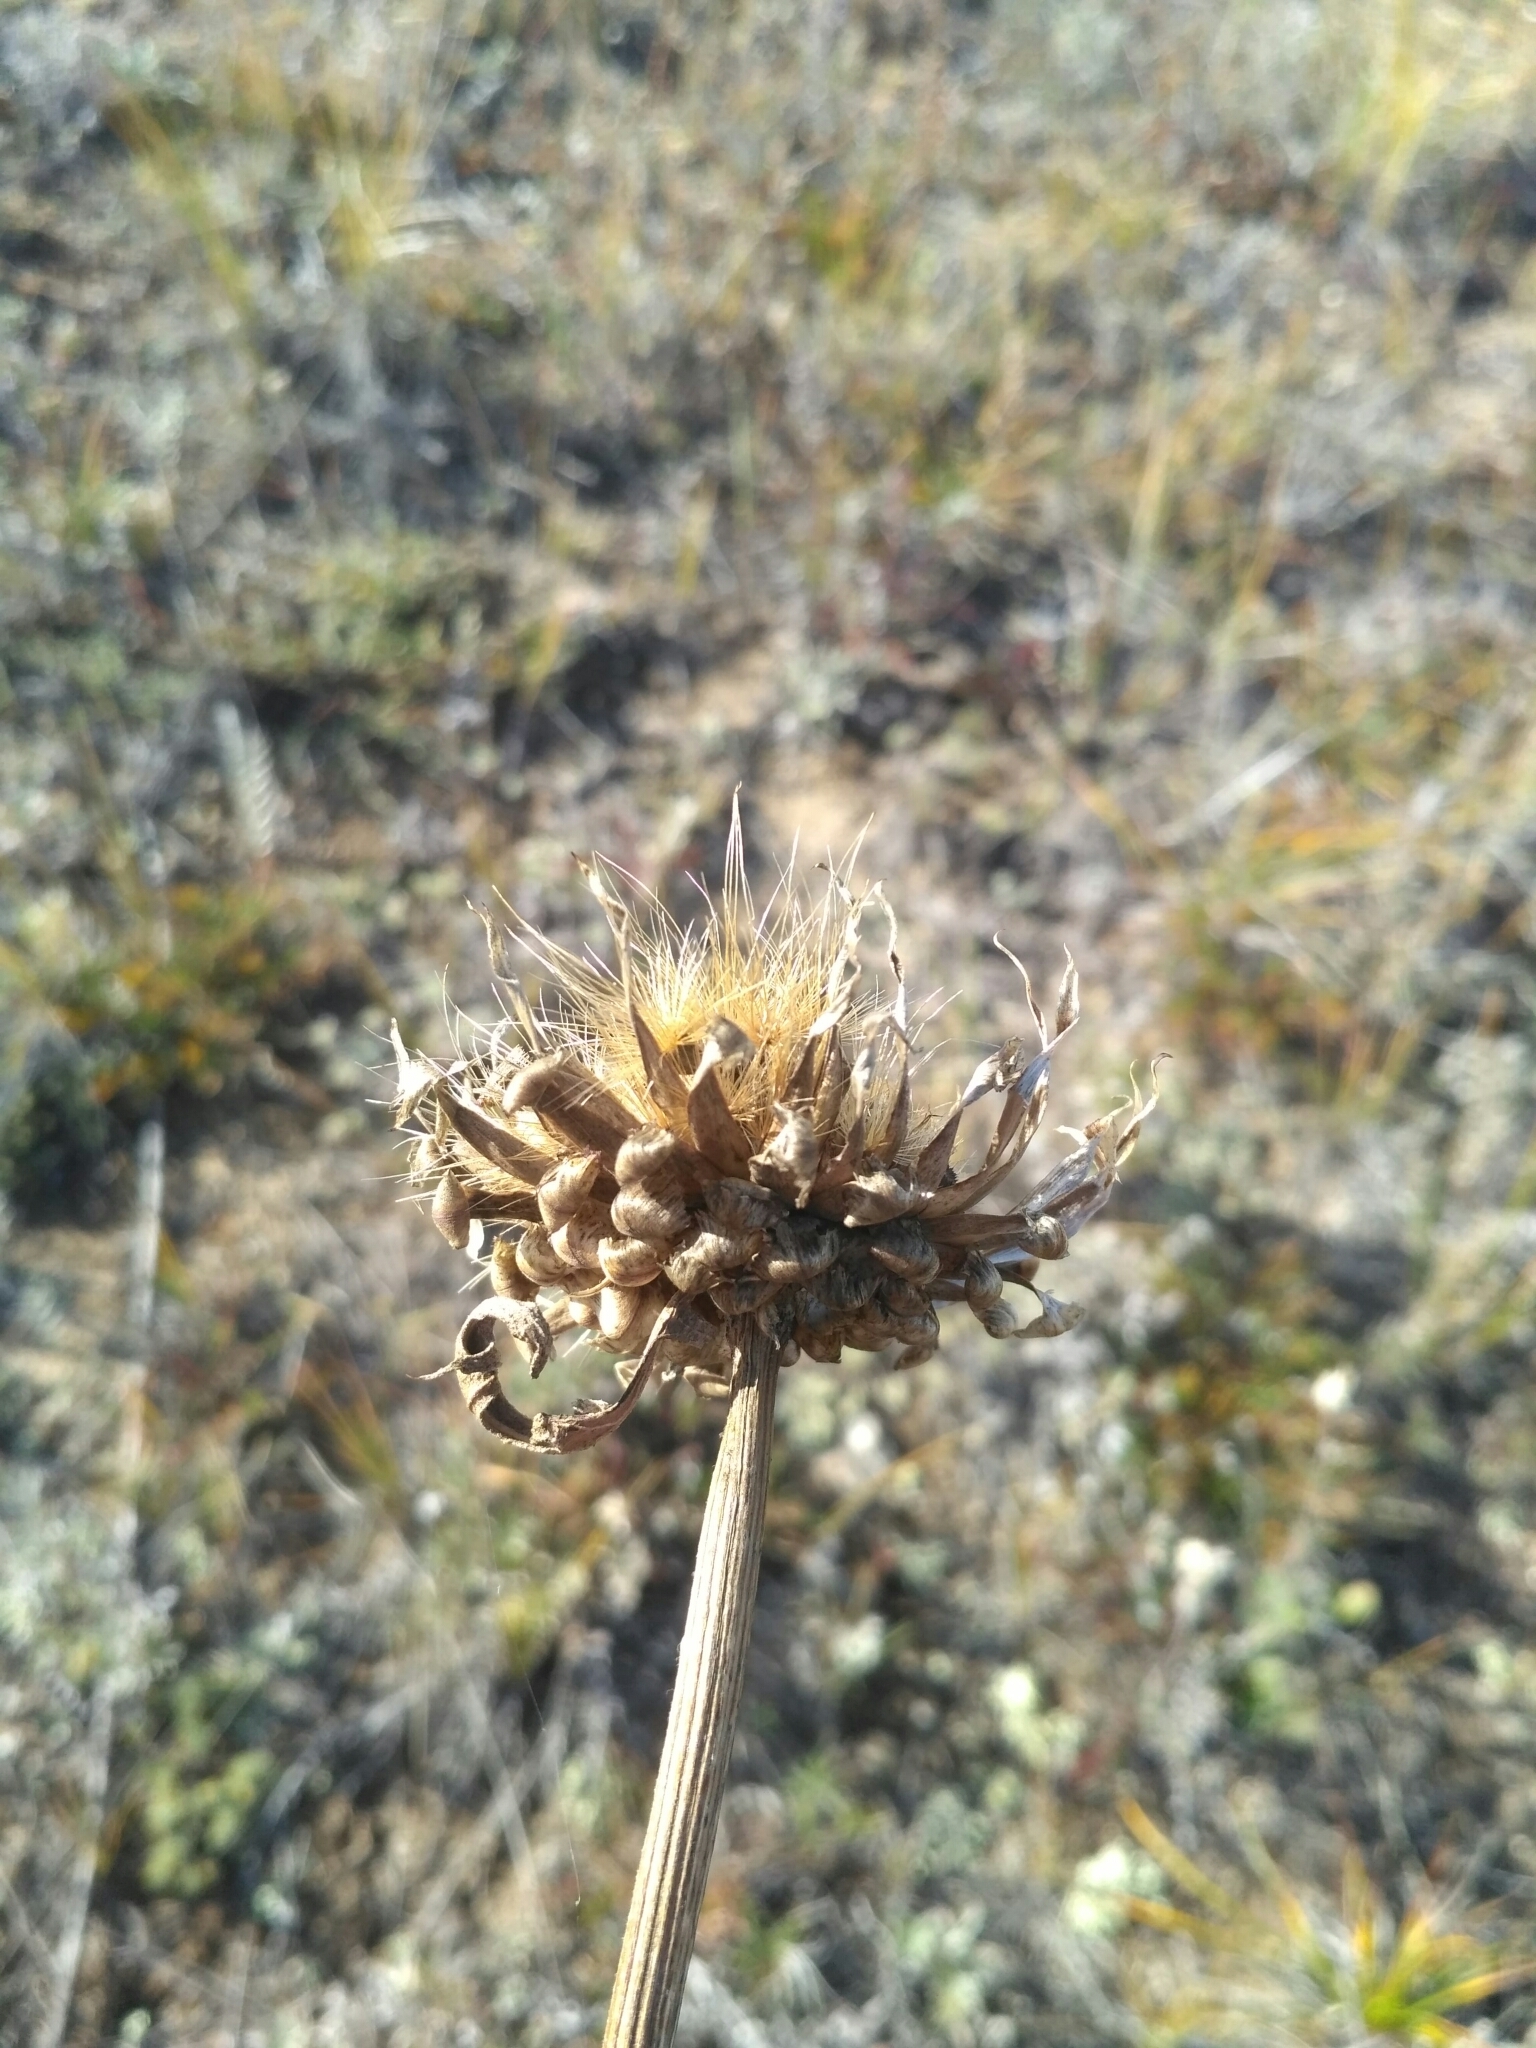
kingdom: Plantae
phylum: Tracheophyta
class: Magnoliopsida
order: Asterales
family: Asteraceae
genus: Leuzea
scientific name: Leuzea uniflora
